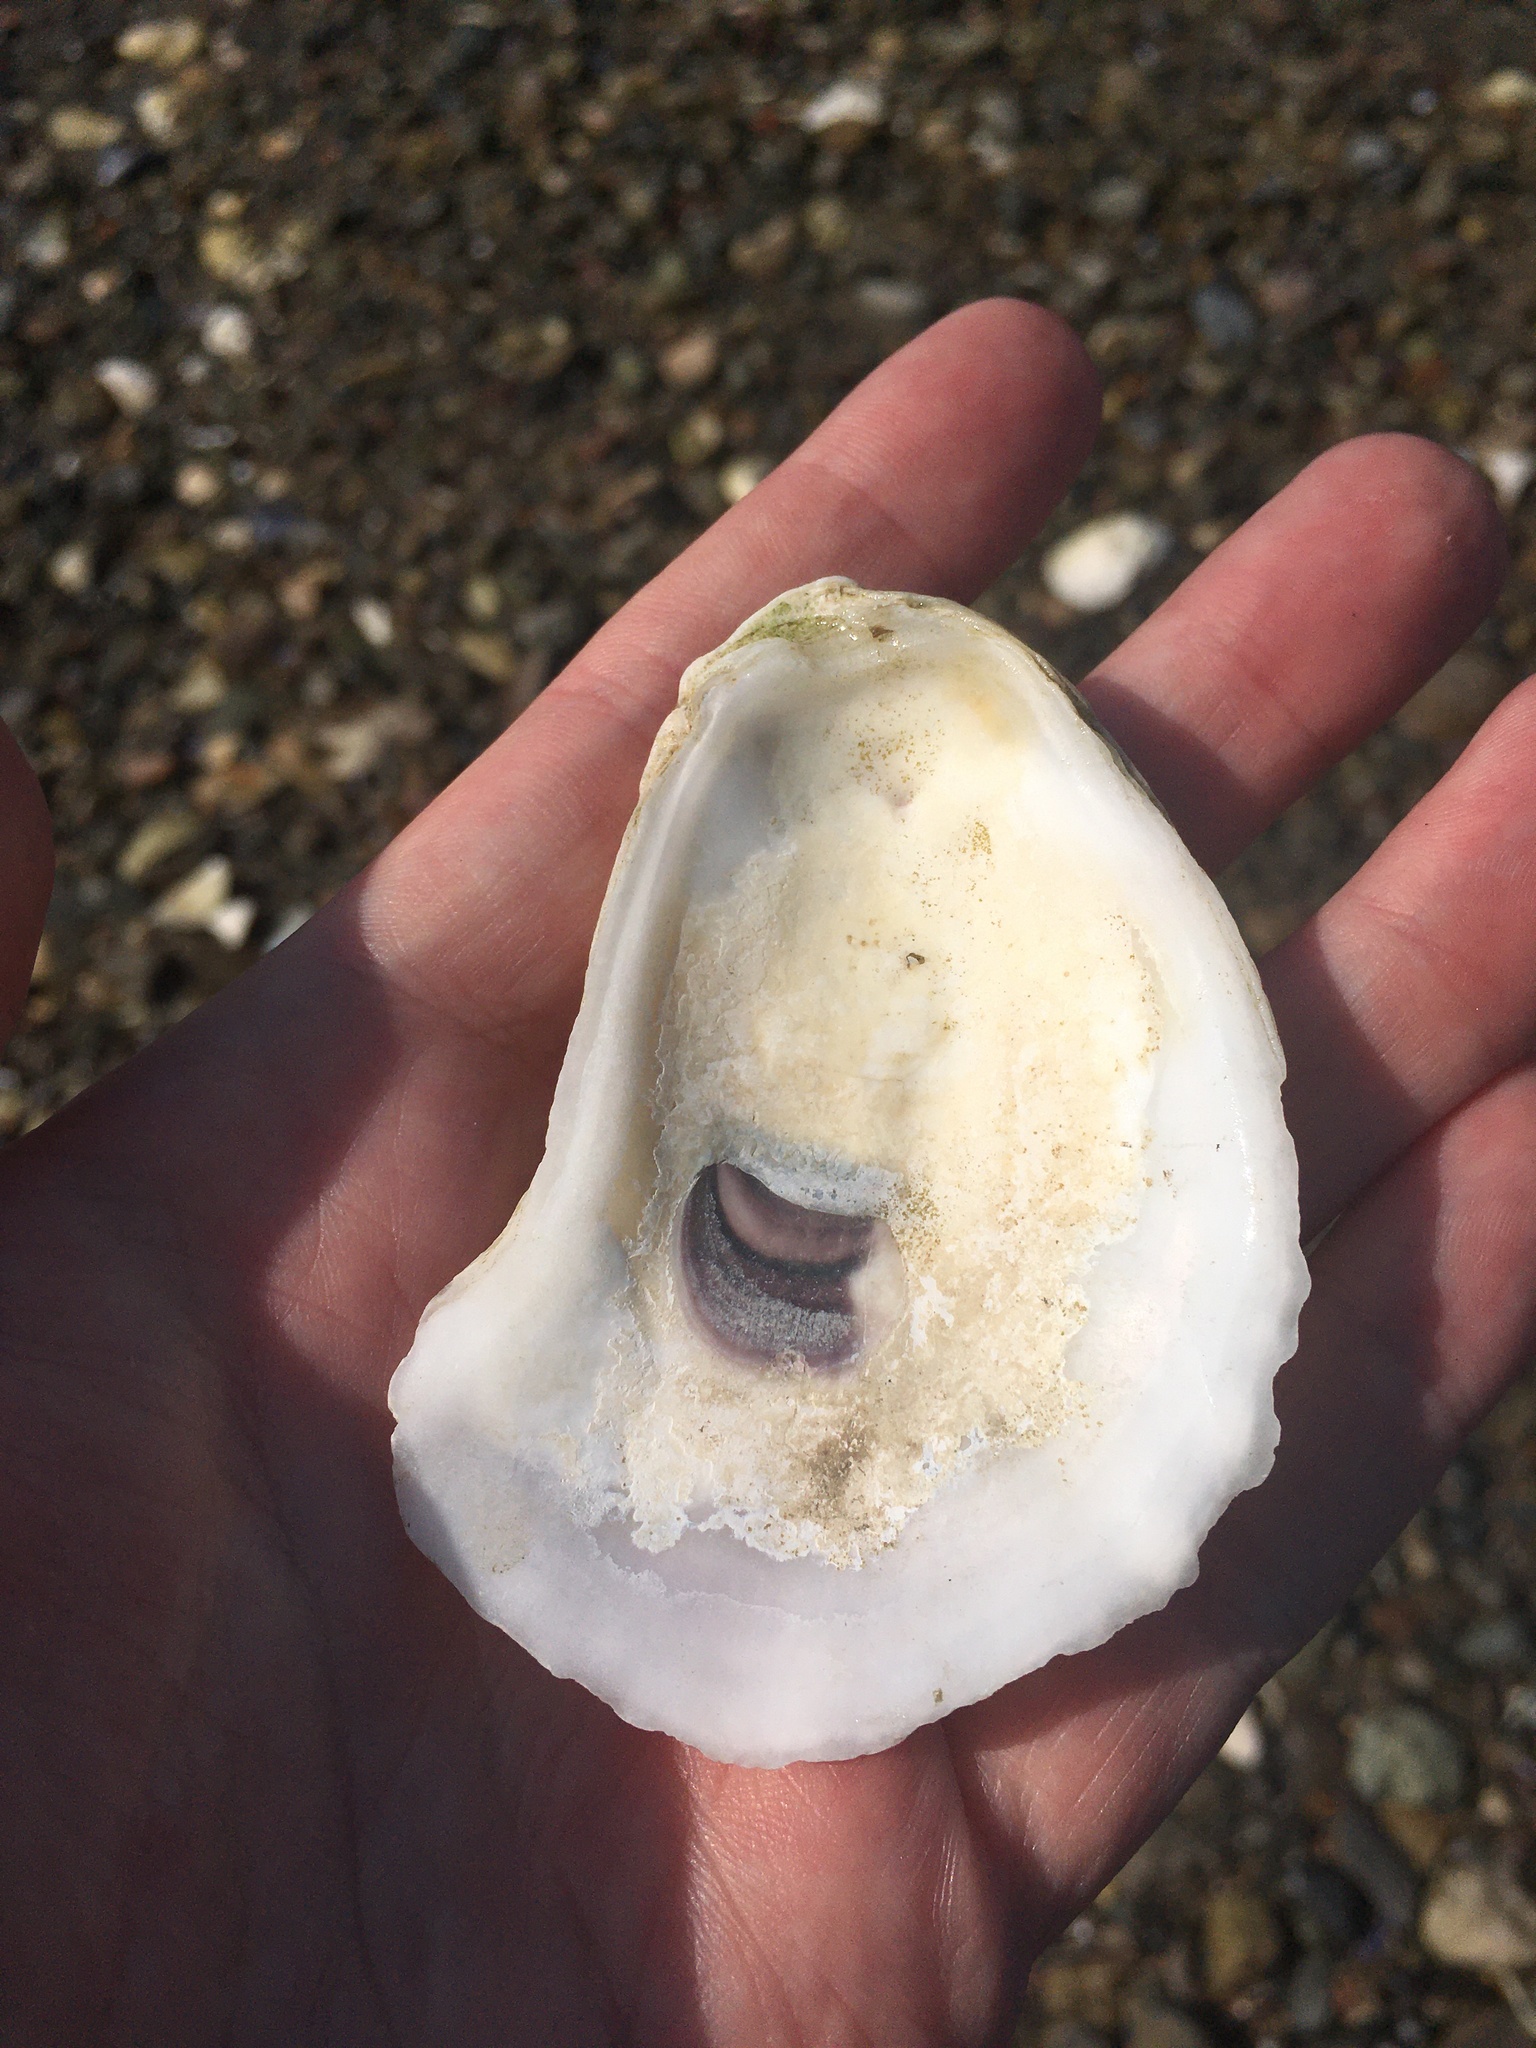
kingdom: Animalia
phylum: Mollusca
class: Bivalvia
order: Ostreida
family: Ostreidae
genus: Crassostrea
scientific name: Crassostrea virginica
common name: American oyster
